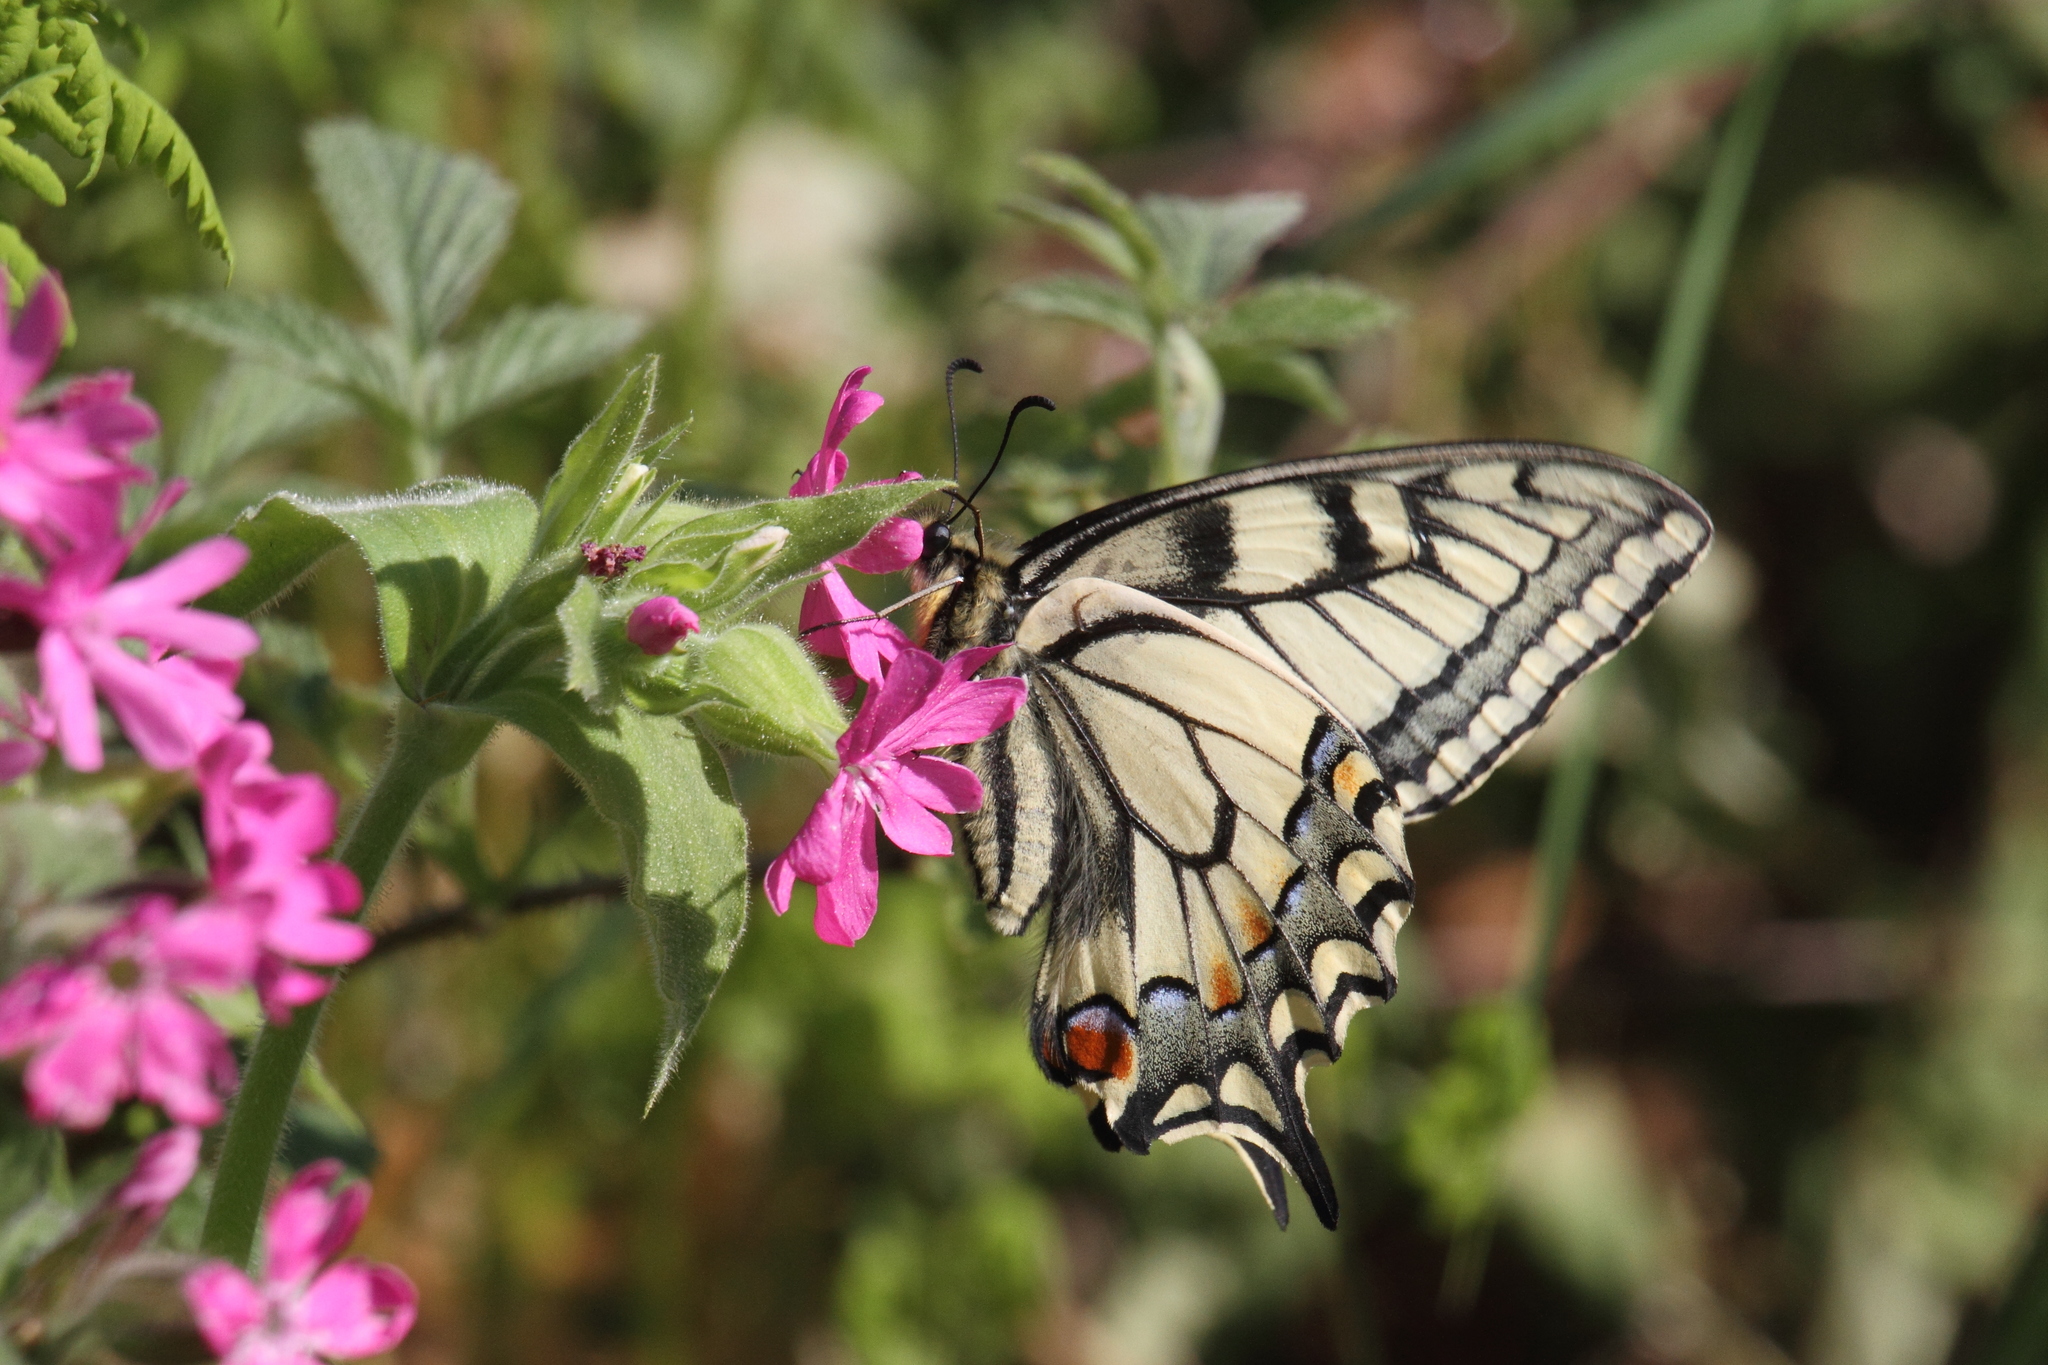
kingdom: Animalia
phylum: Arthropoda
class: Insecta
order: Lepidoptera
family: Papilionidae
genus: Papilio
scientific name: Papilio machaon
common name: Swallowtail
